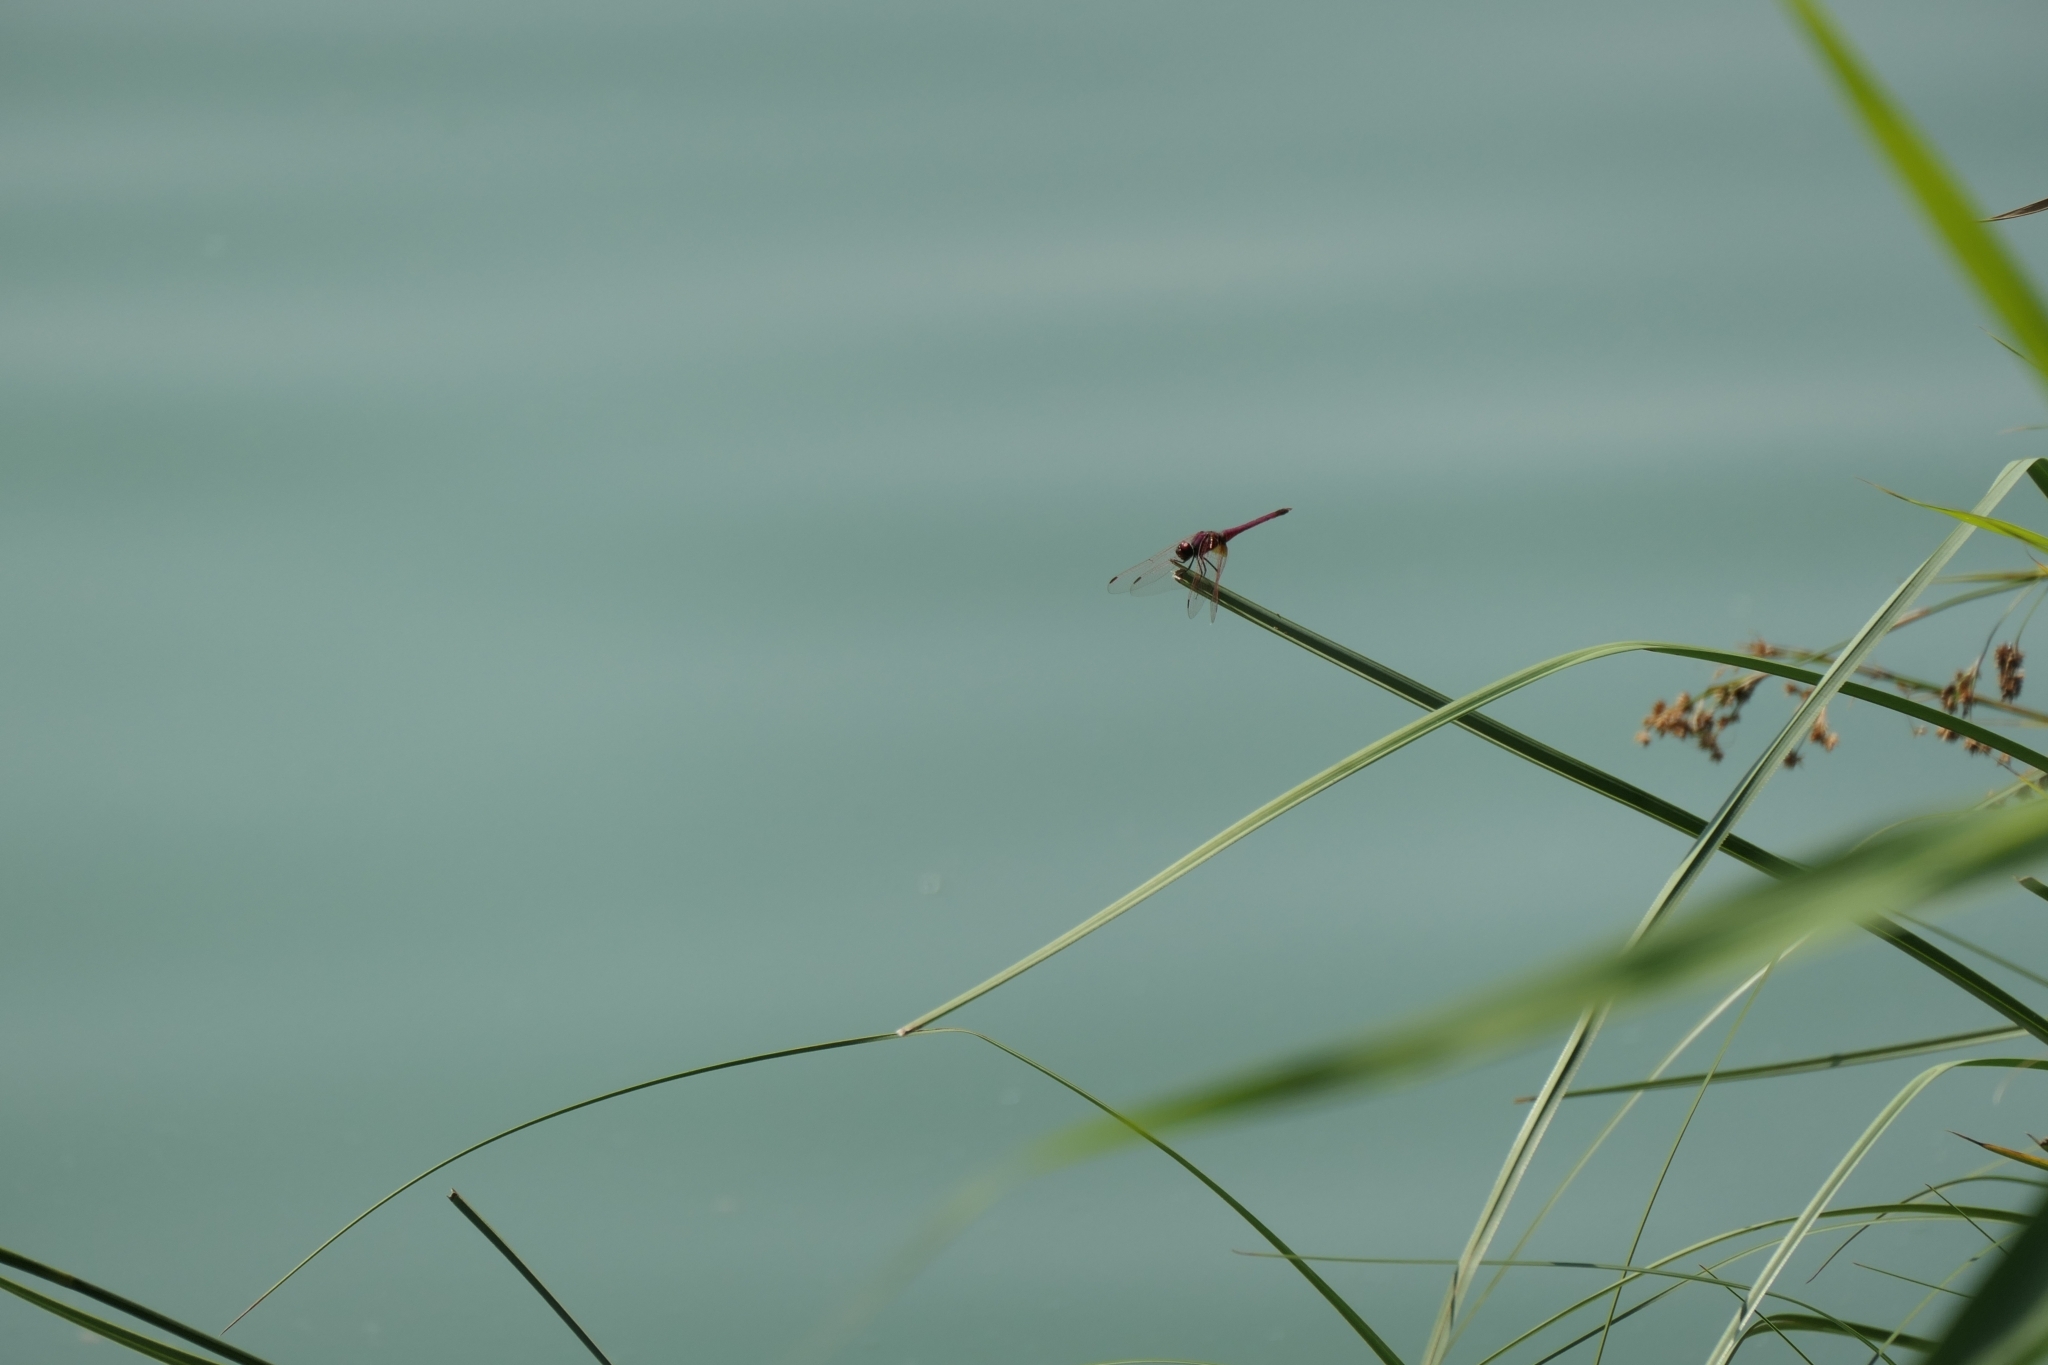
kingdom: Animalia
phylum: Arthropoda
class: Insecta
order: Odonata
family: Libellulidae
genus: Trithemis
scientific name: Trithemis annulata
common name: Violet dropwing
